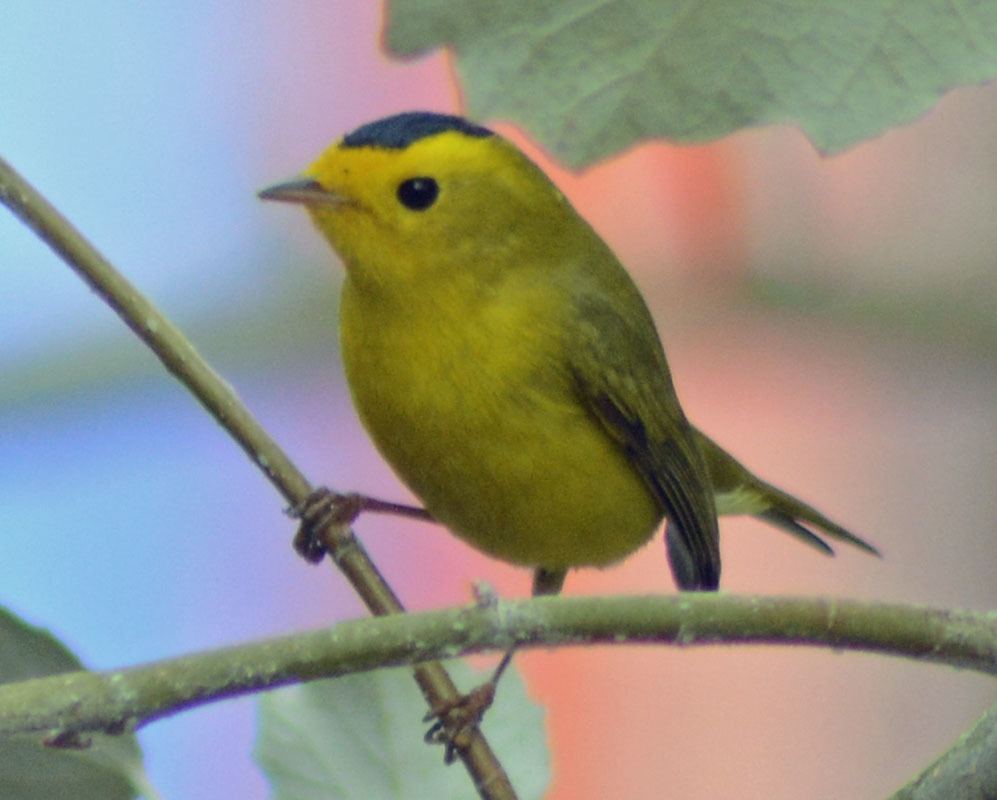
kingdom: Animalia
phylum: Chordata
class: Aves
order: Passeriformes
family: Parulidae
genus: Cardellina
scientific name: Cardellina pusilla
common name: Wilson's warbler
